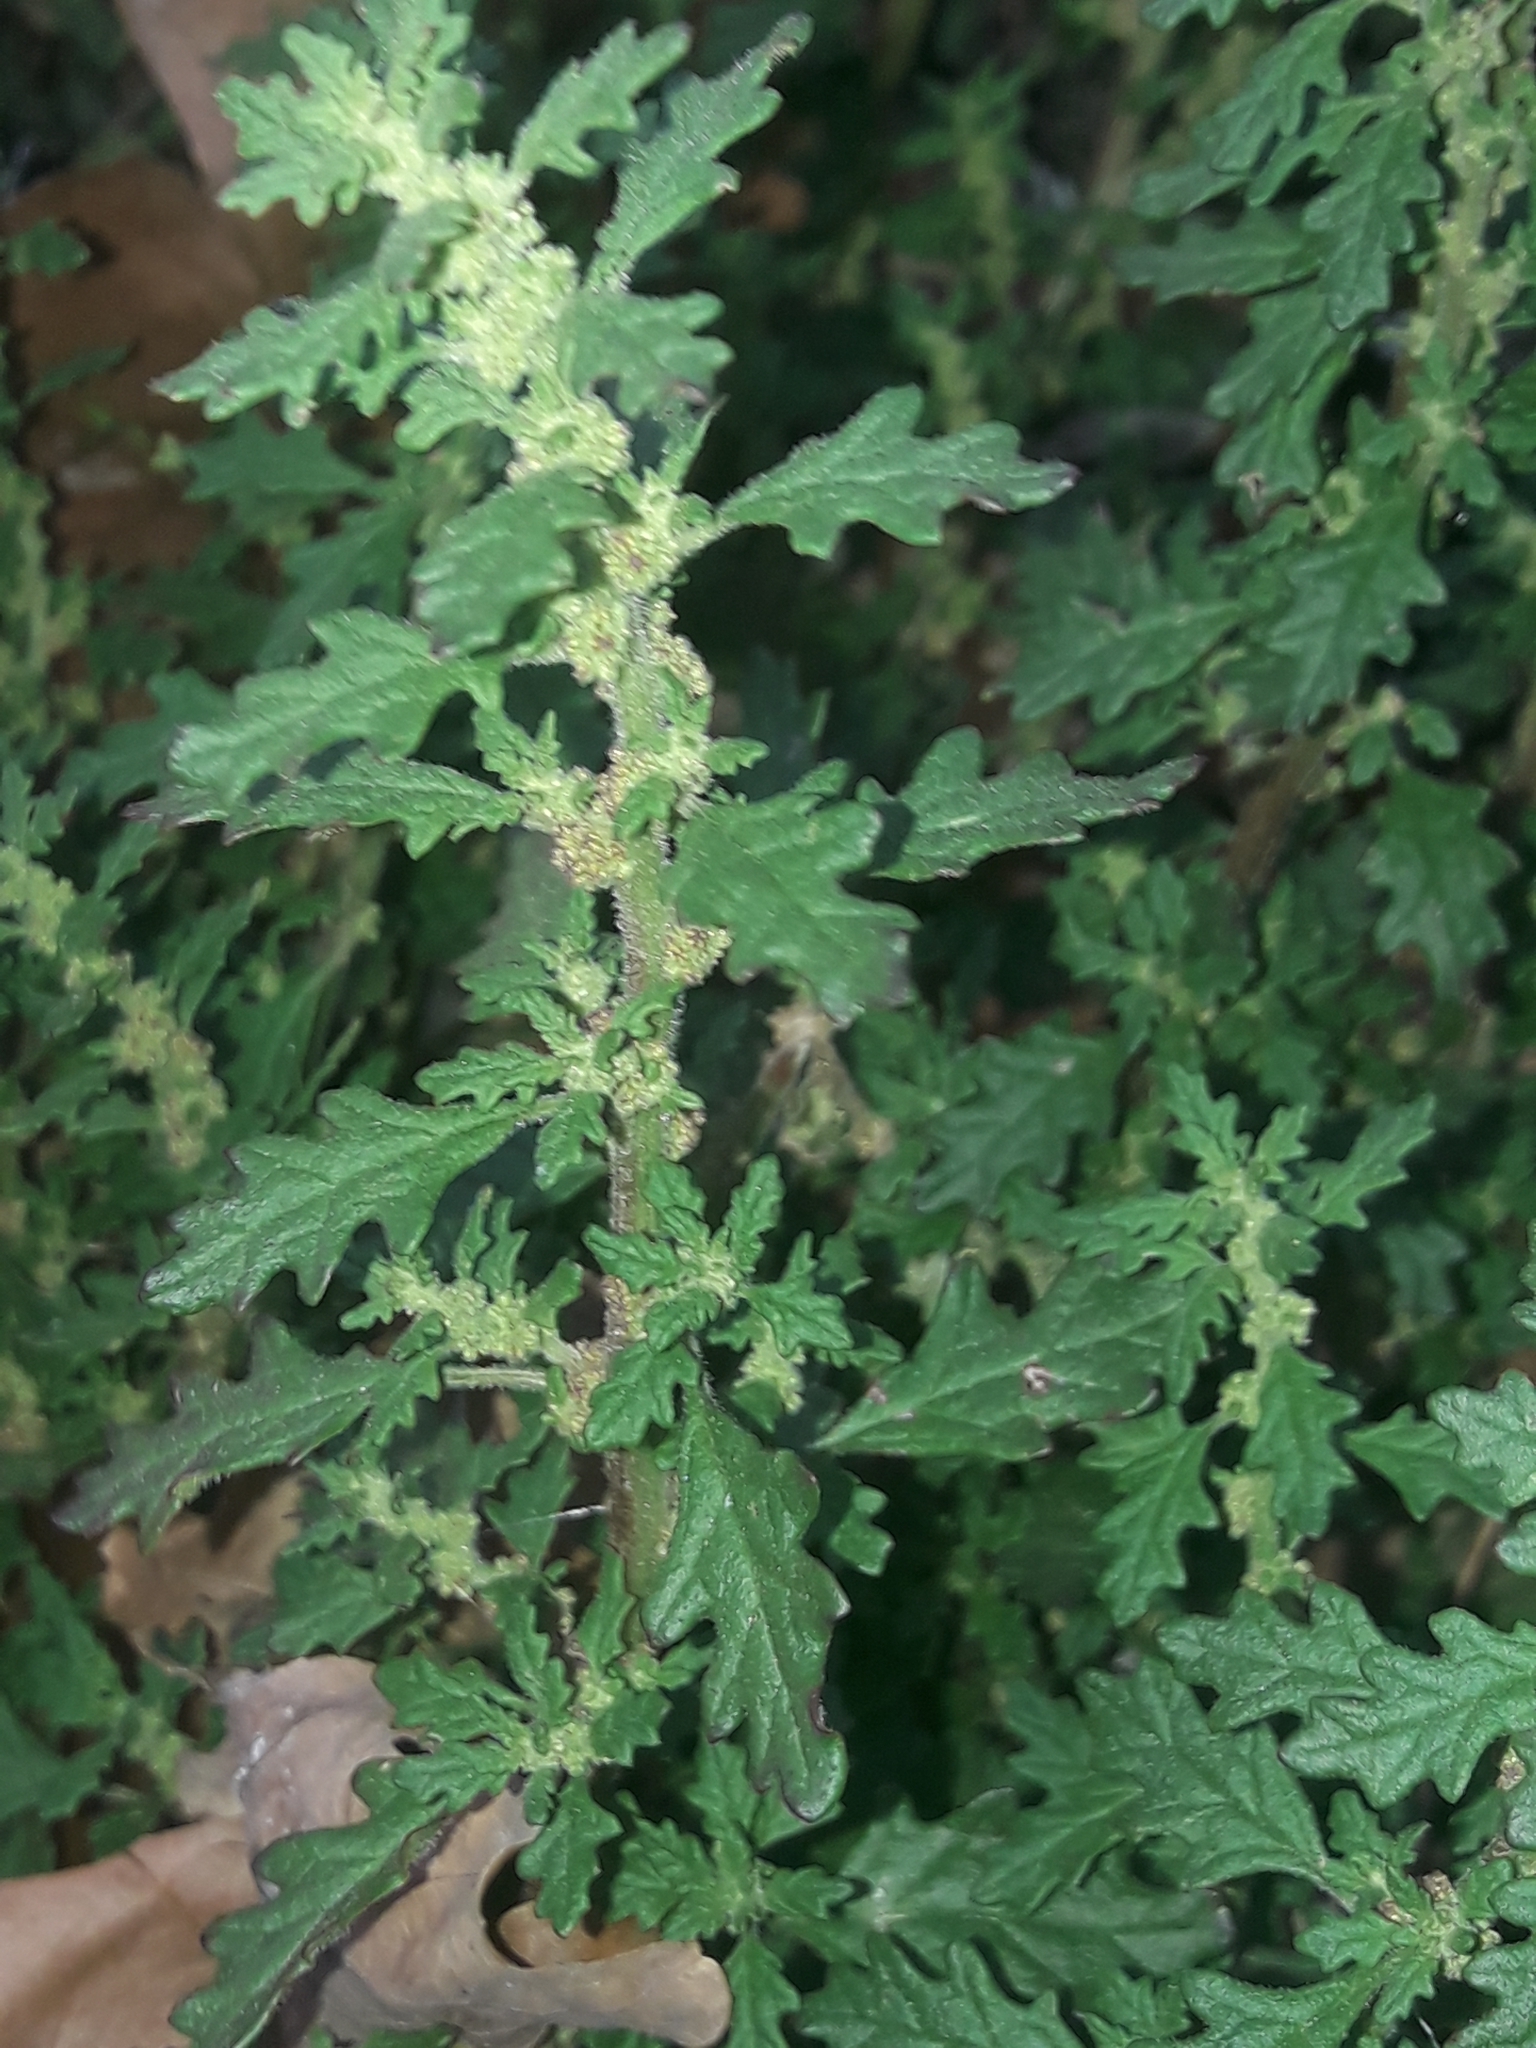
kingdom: Plantae
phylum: Tracheophyta
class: Magnoliopsida
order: Caryophyllales
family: Amaranthaceae
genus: Dysphania
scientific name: Dysphania pumilio
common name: Clammy goosefoot
